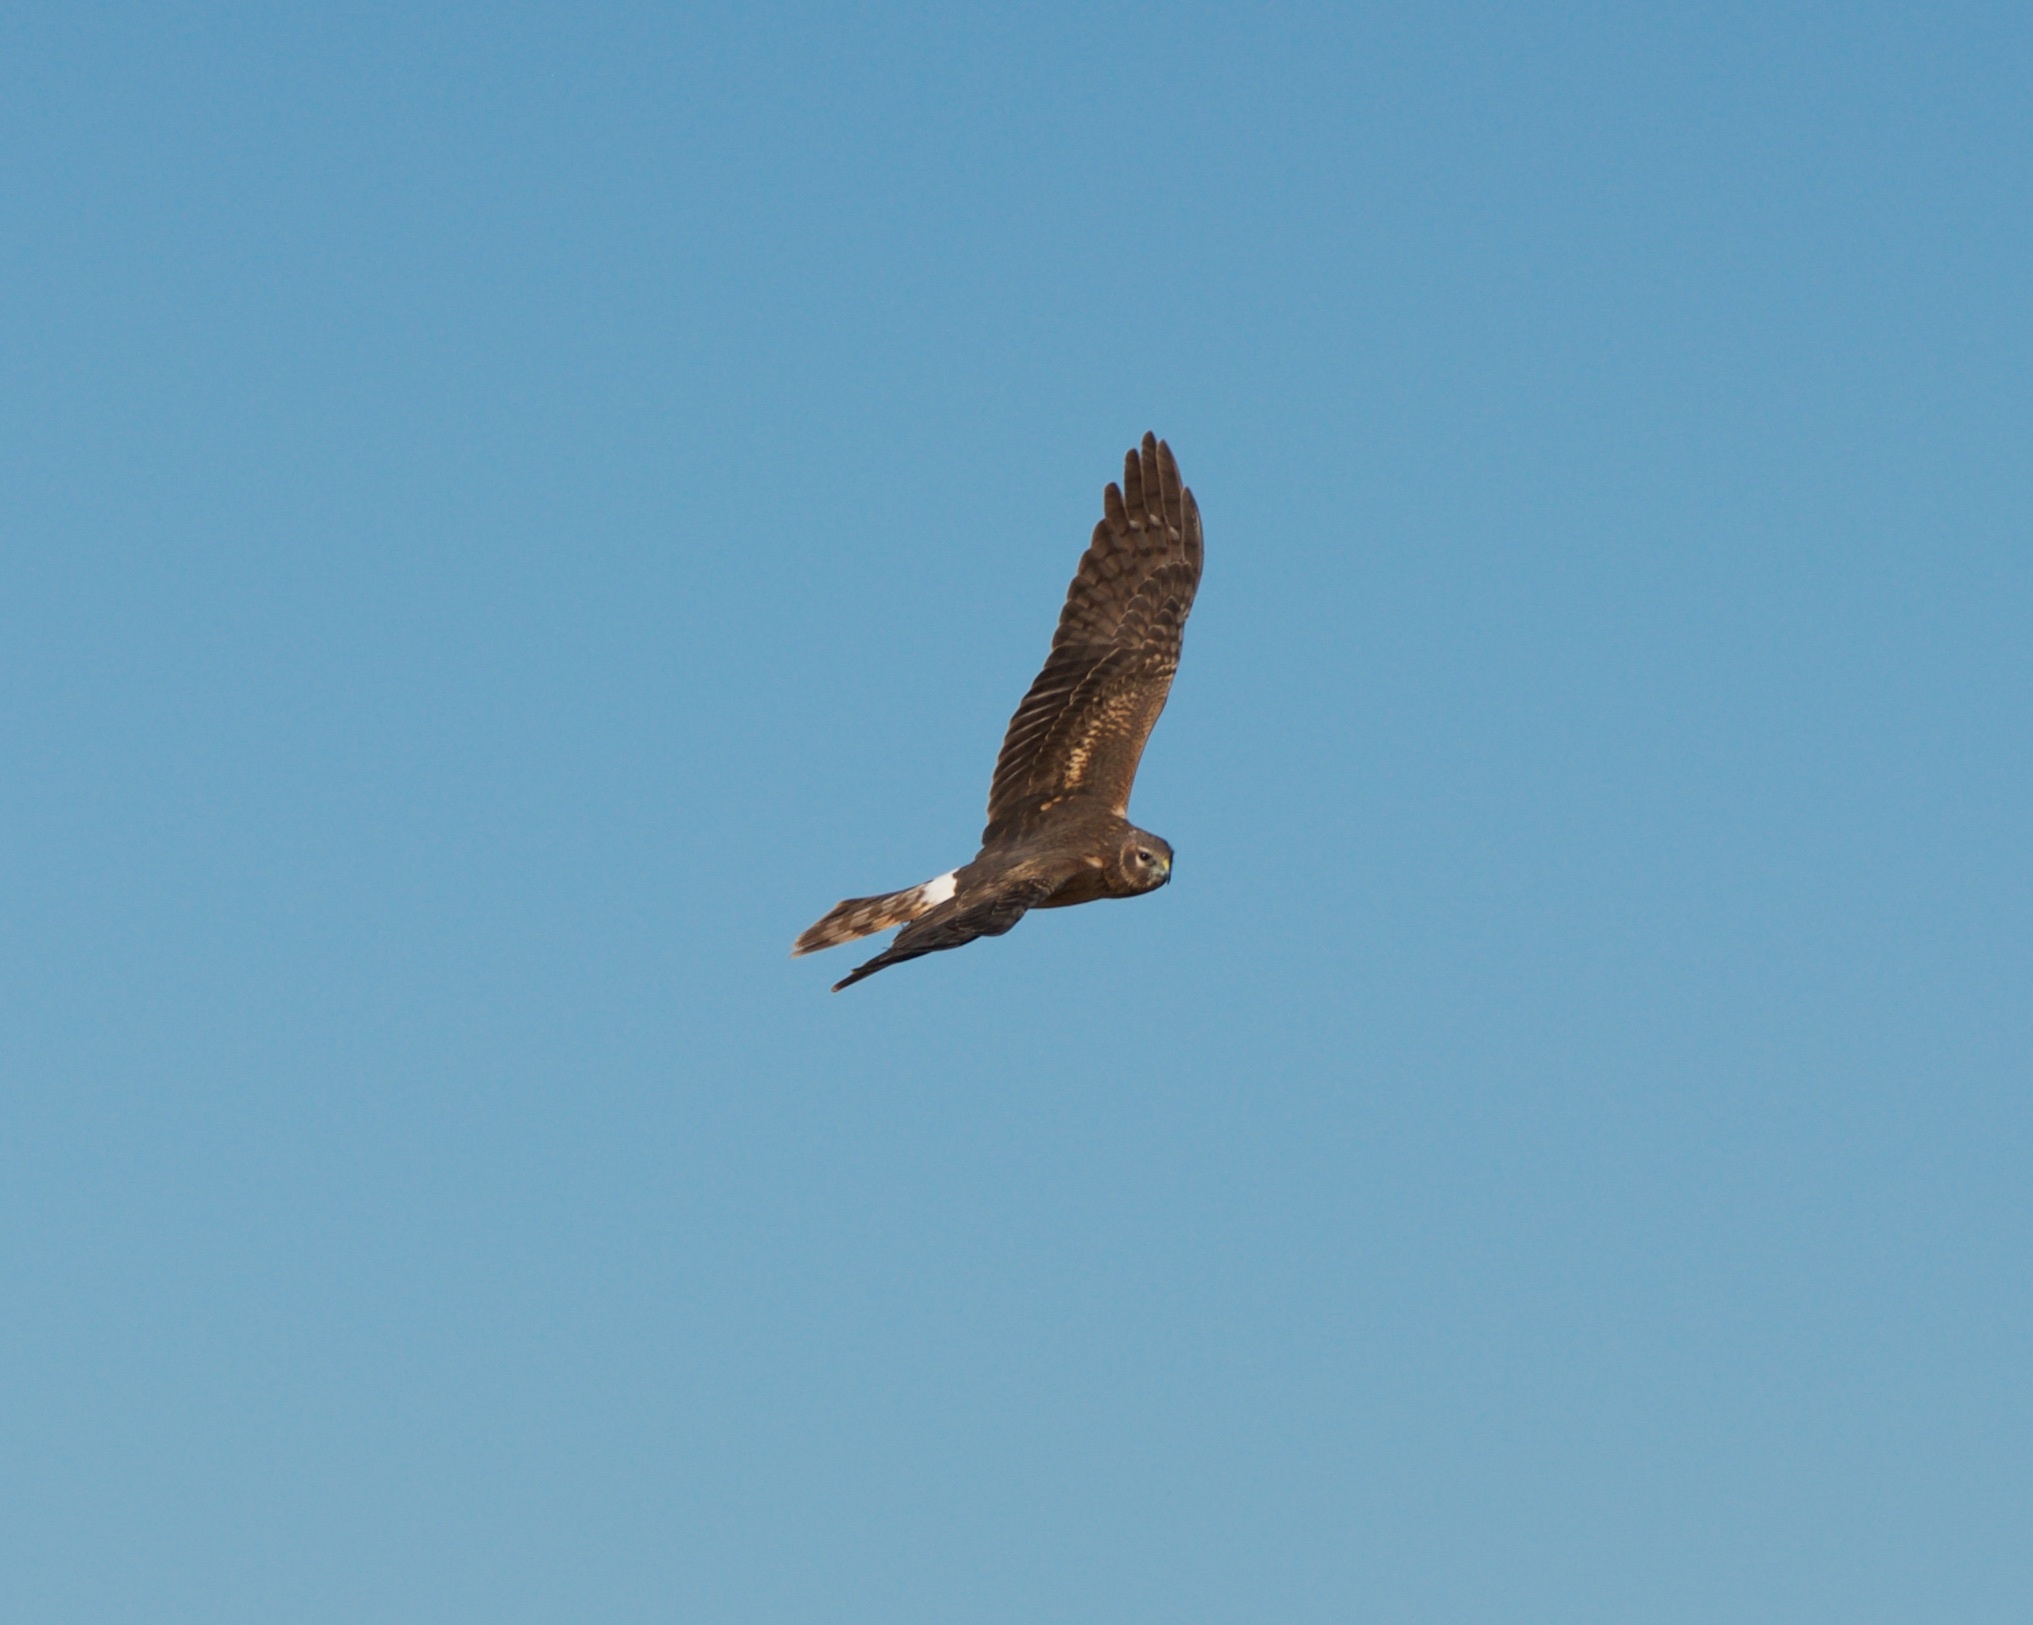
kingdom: Animalia
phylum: Chordata
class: Aves
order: Accipitriformes
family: Accipitridae
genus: Circus
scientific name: Circus cyaneus
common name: Hen harrier
